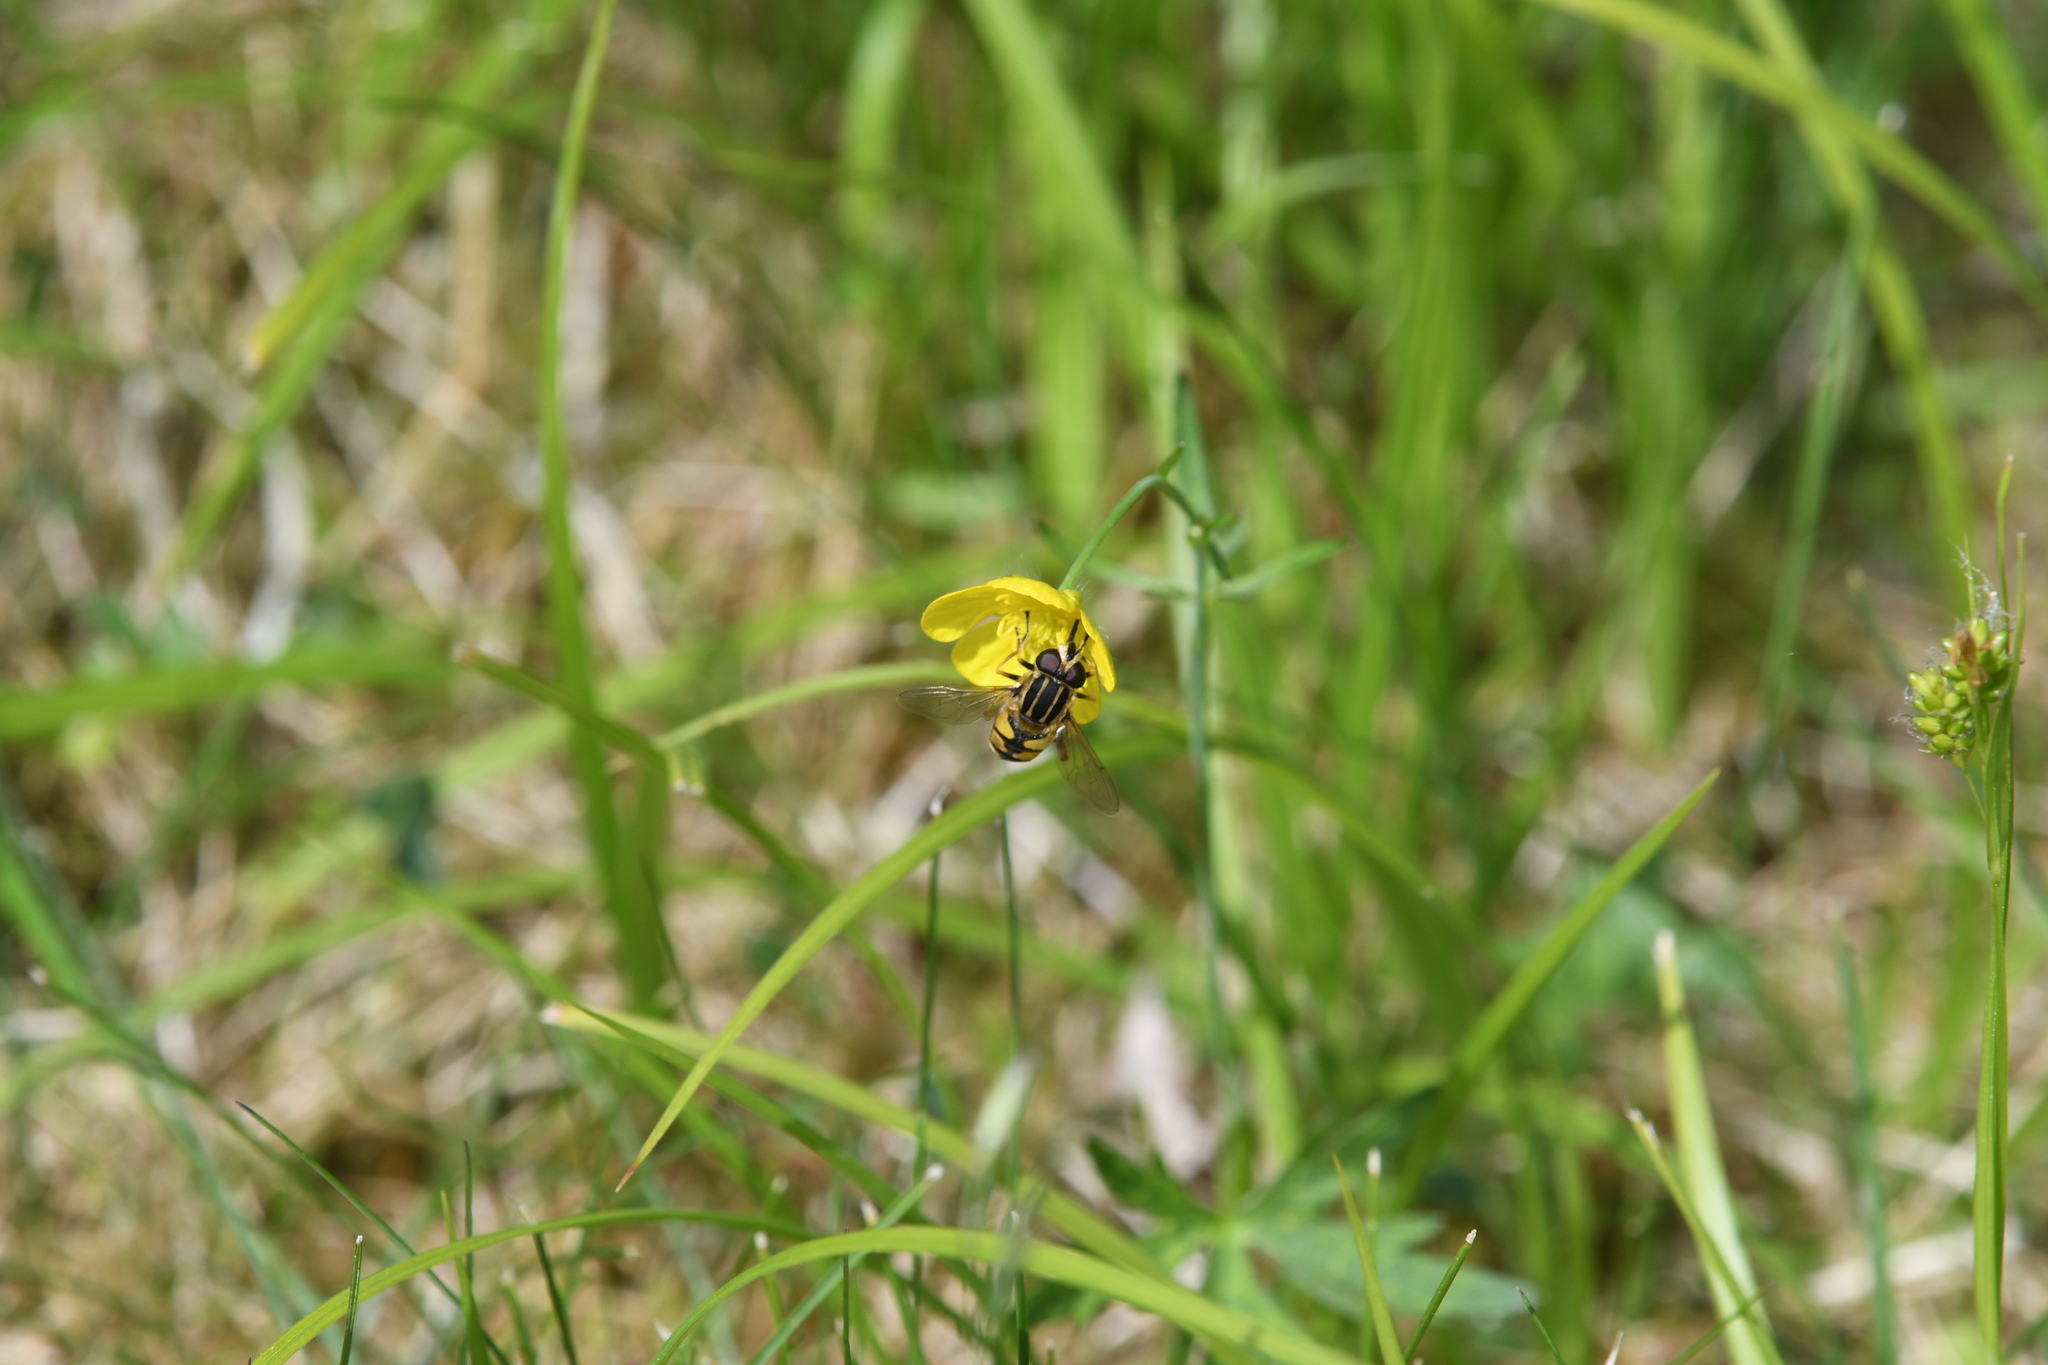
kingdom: Animalia
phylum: Arthropoda
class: Insecta
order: Diptera
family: Syrphidae
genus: Helophilus
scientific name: Helophilus pendulus
